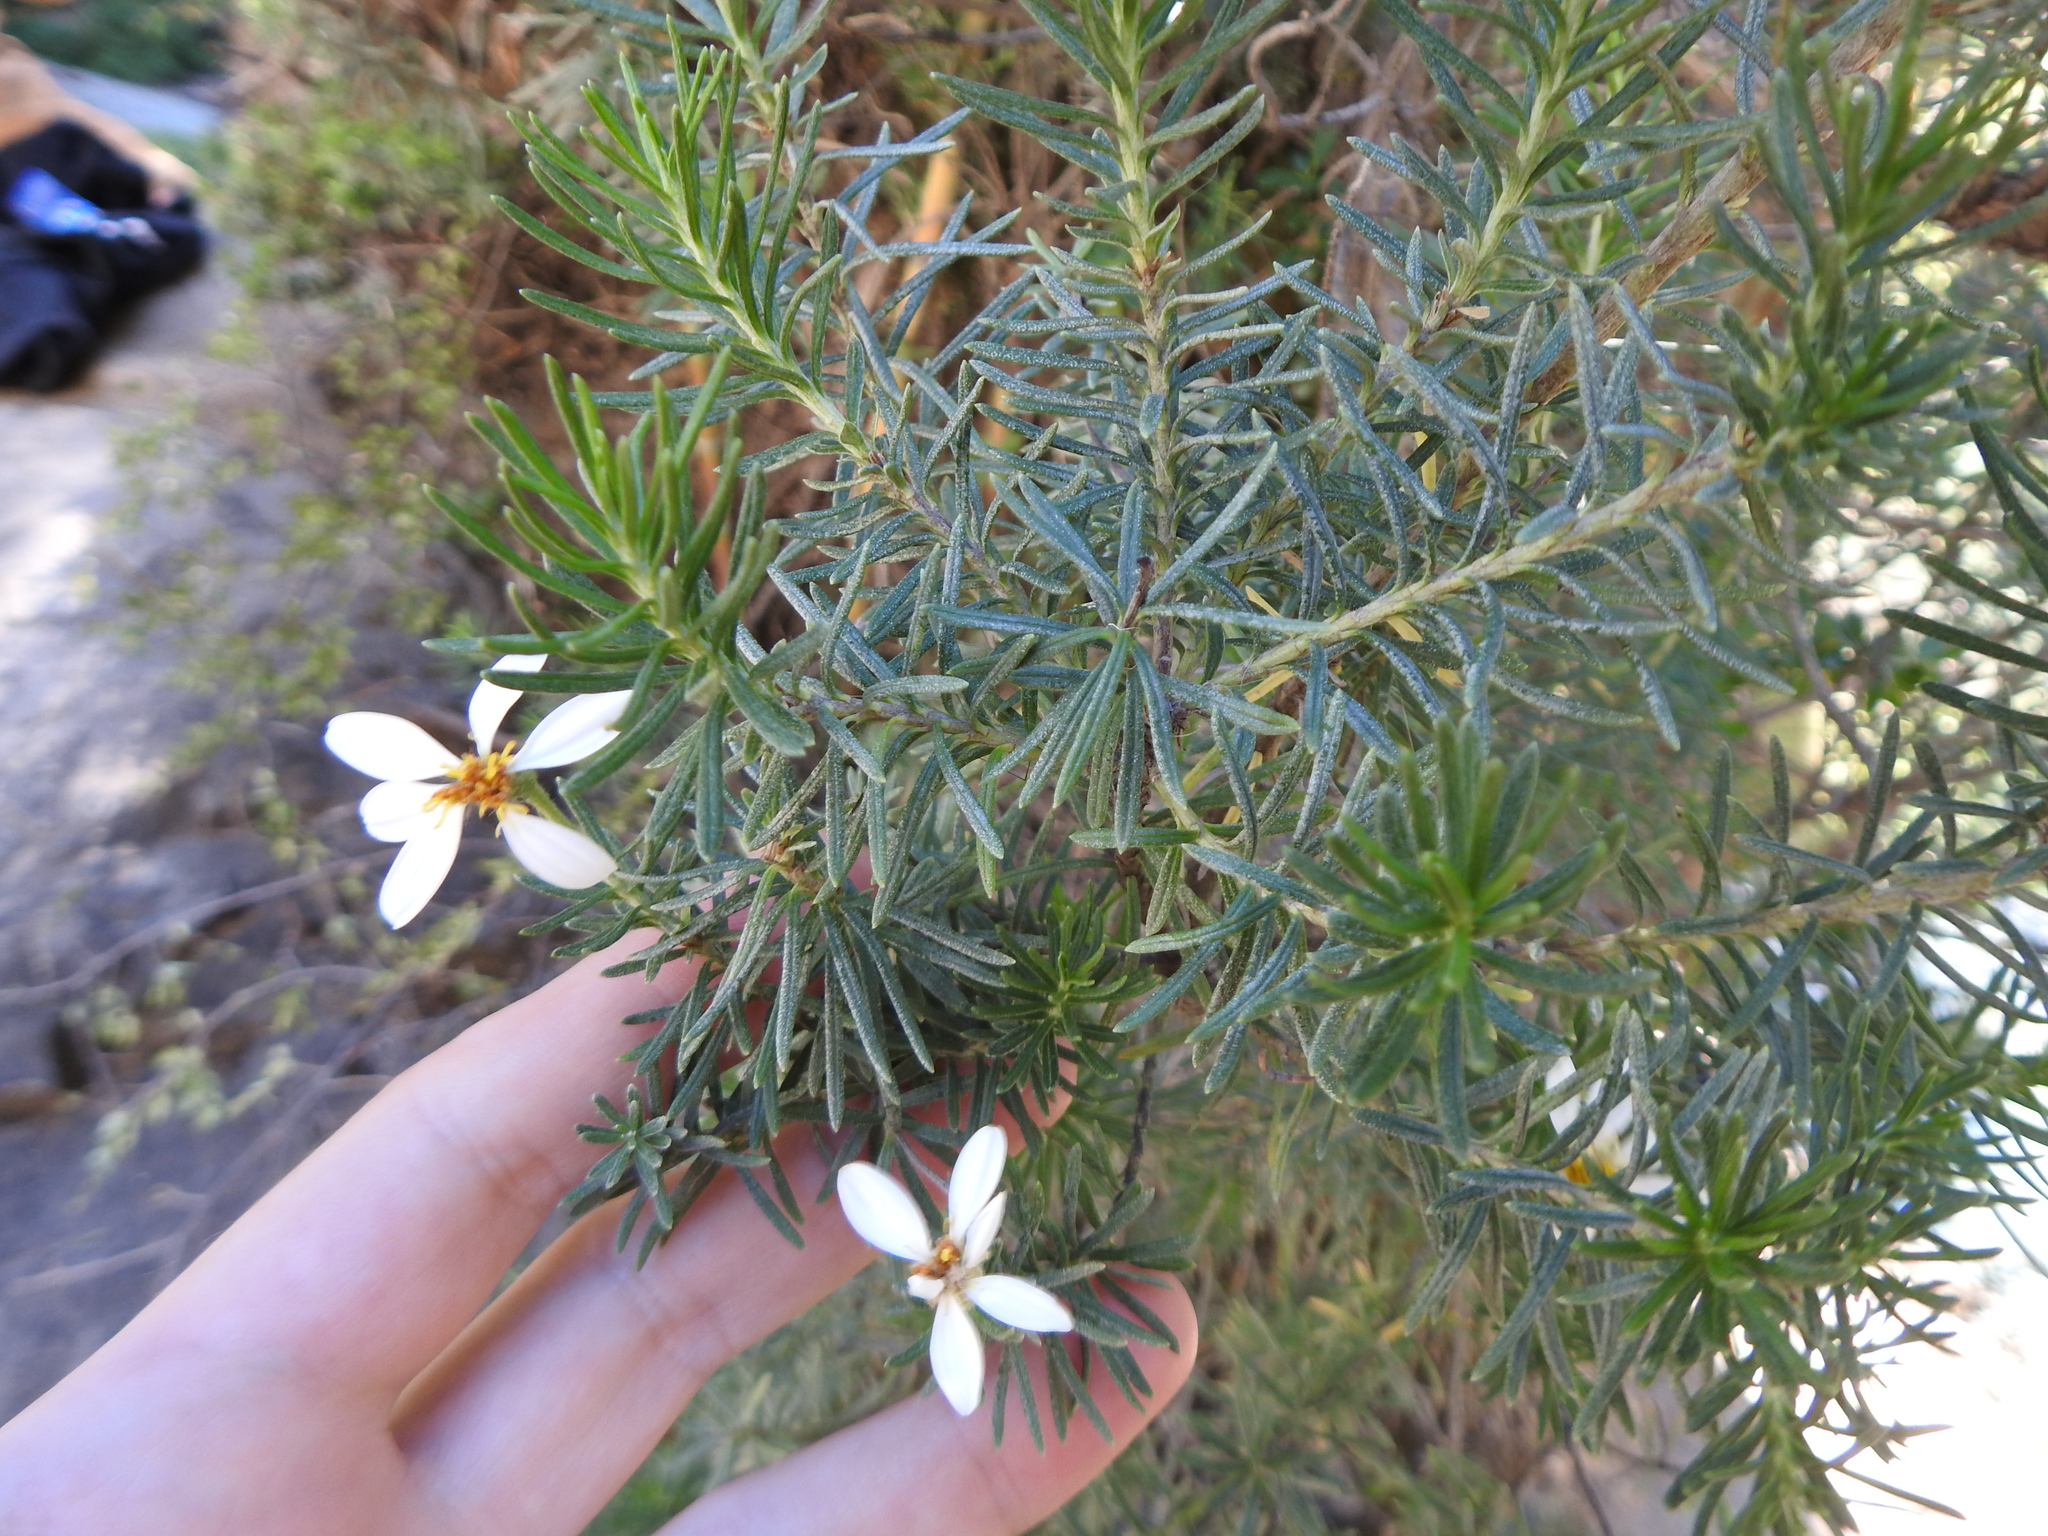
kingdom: Plantae
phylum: Tracheophyta
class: Magnoliopsida
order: Asterales
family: Asteraceae
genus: Chiliotrichum
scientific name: Chiliotrichum diffusum
